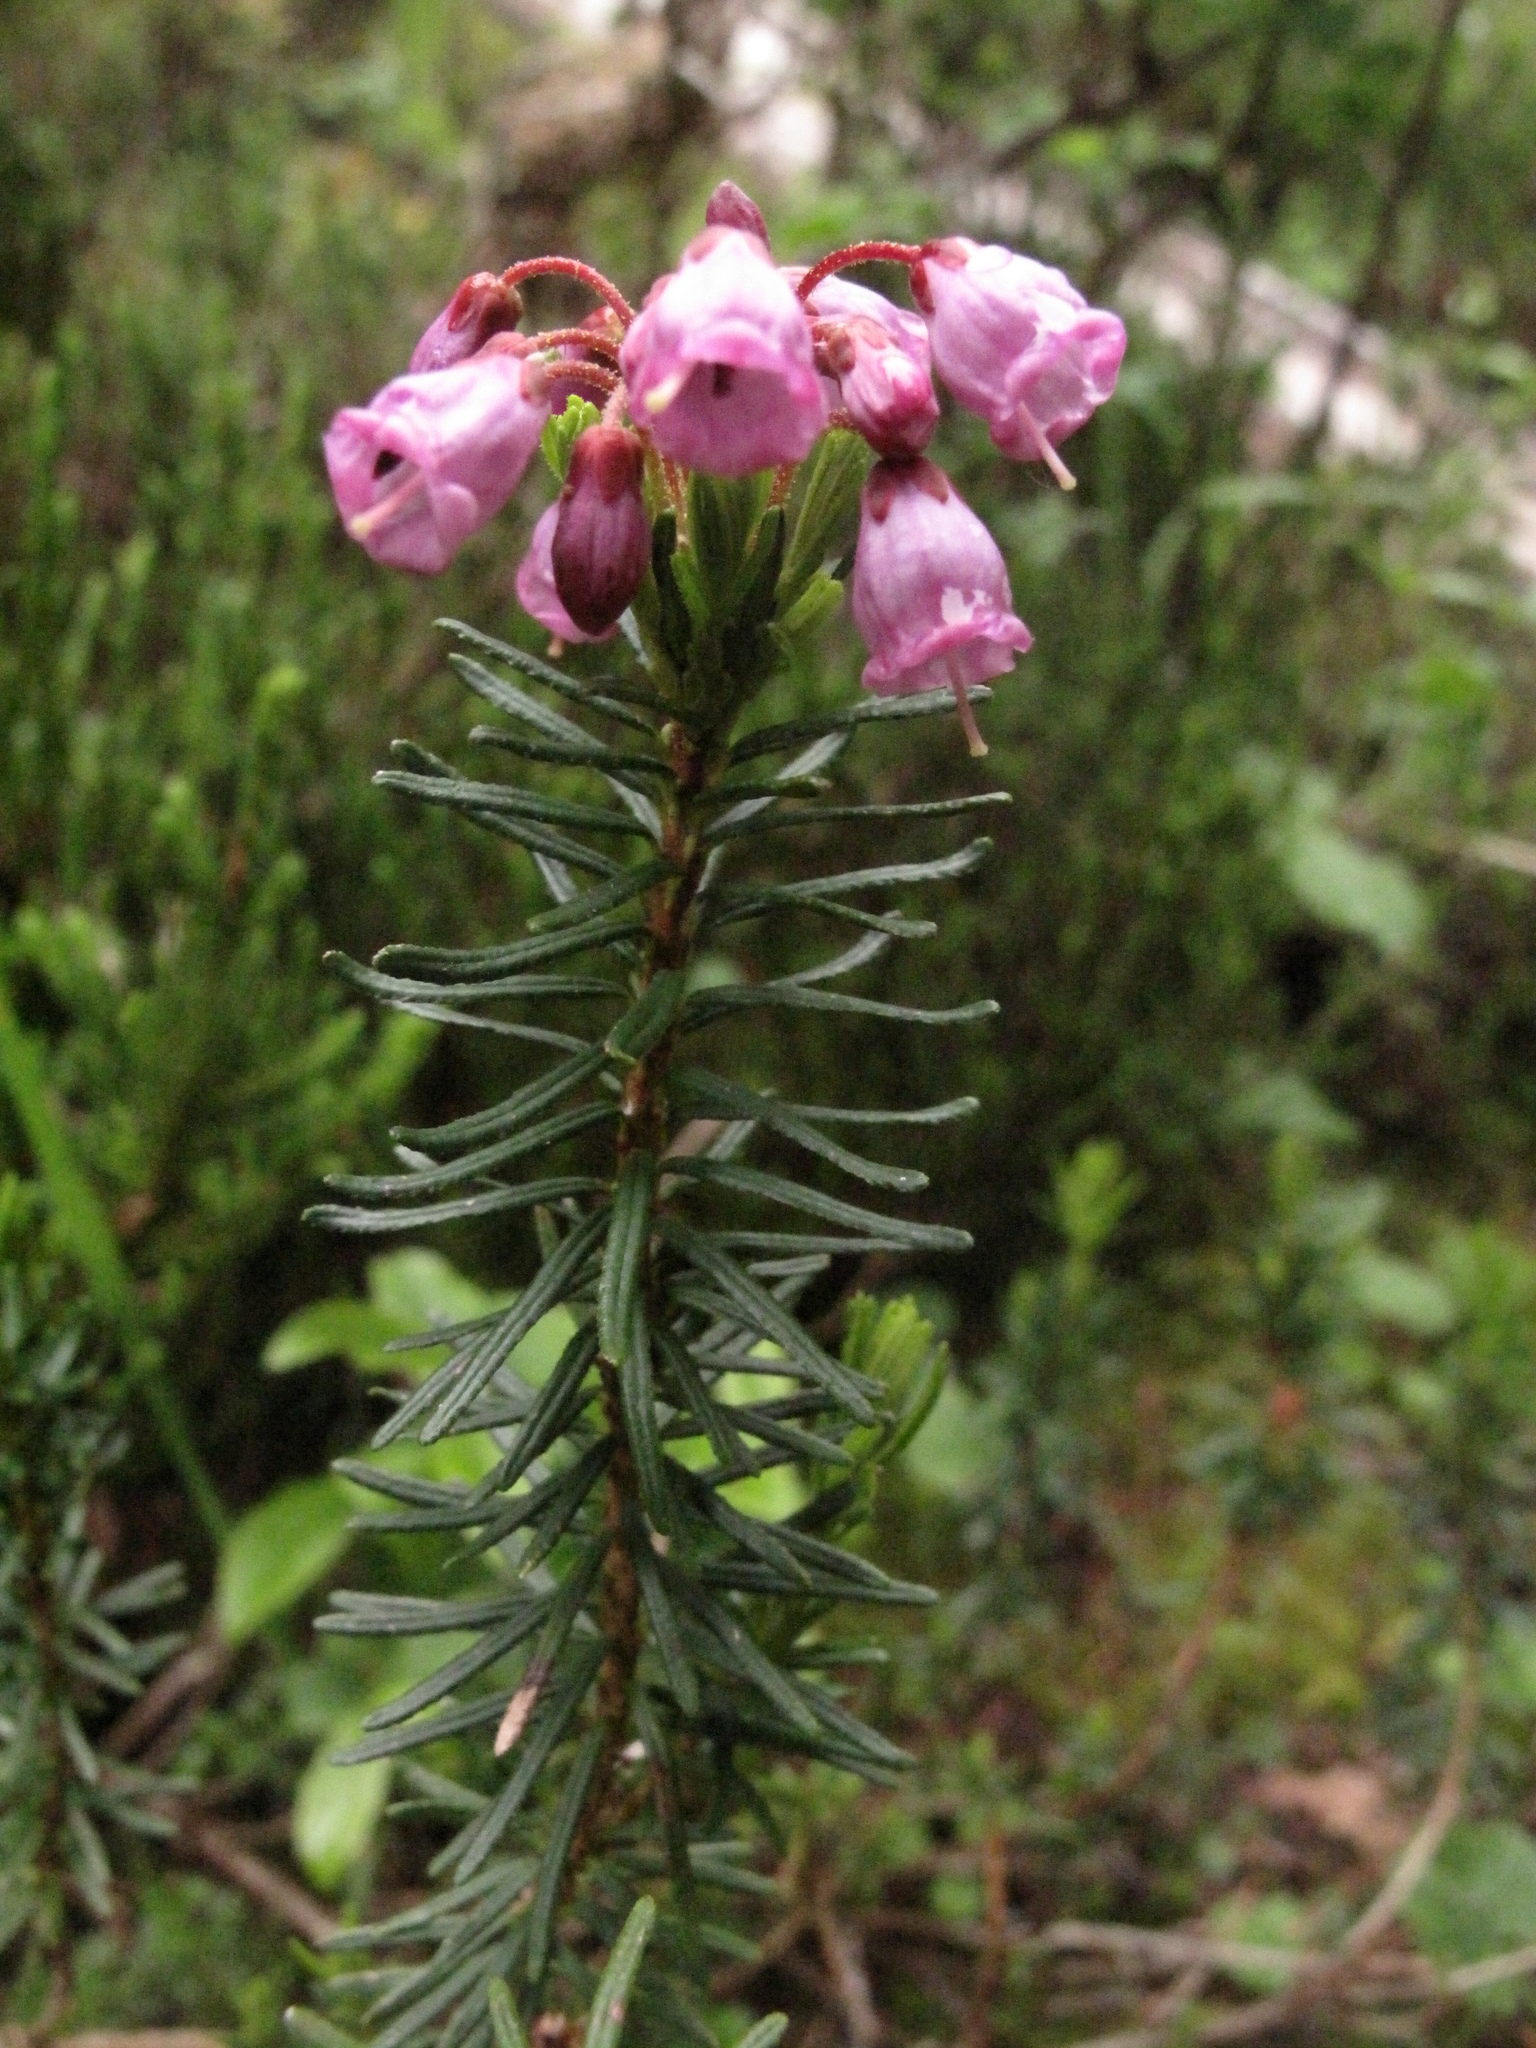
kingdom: Plantae
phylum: Tracheophyta
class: Magnoliopsida
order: Ericales
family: Ericaceae
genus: Phyllodoce
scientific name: Phyllodoce empetriformis
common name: Pink mountain heather
